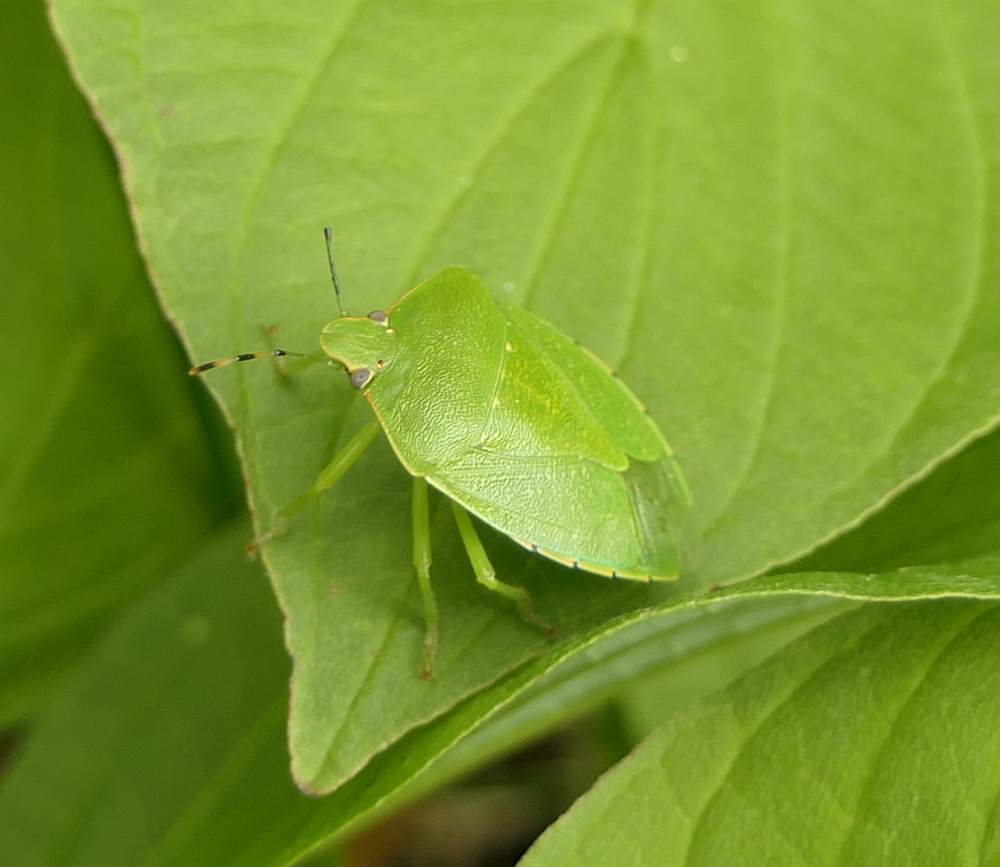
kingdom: Animalia
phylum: Arthropoda
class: Insecta
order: Hemiptera
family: Pentatomidae
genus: Chinavia
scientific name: Chinavia hilaris
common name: Green stink bug
